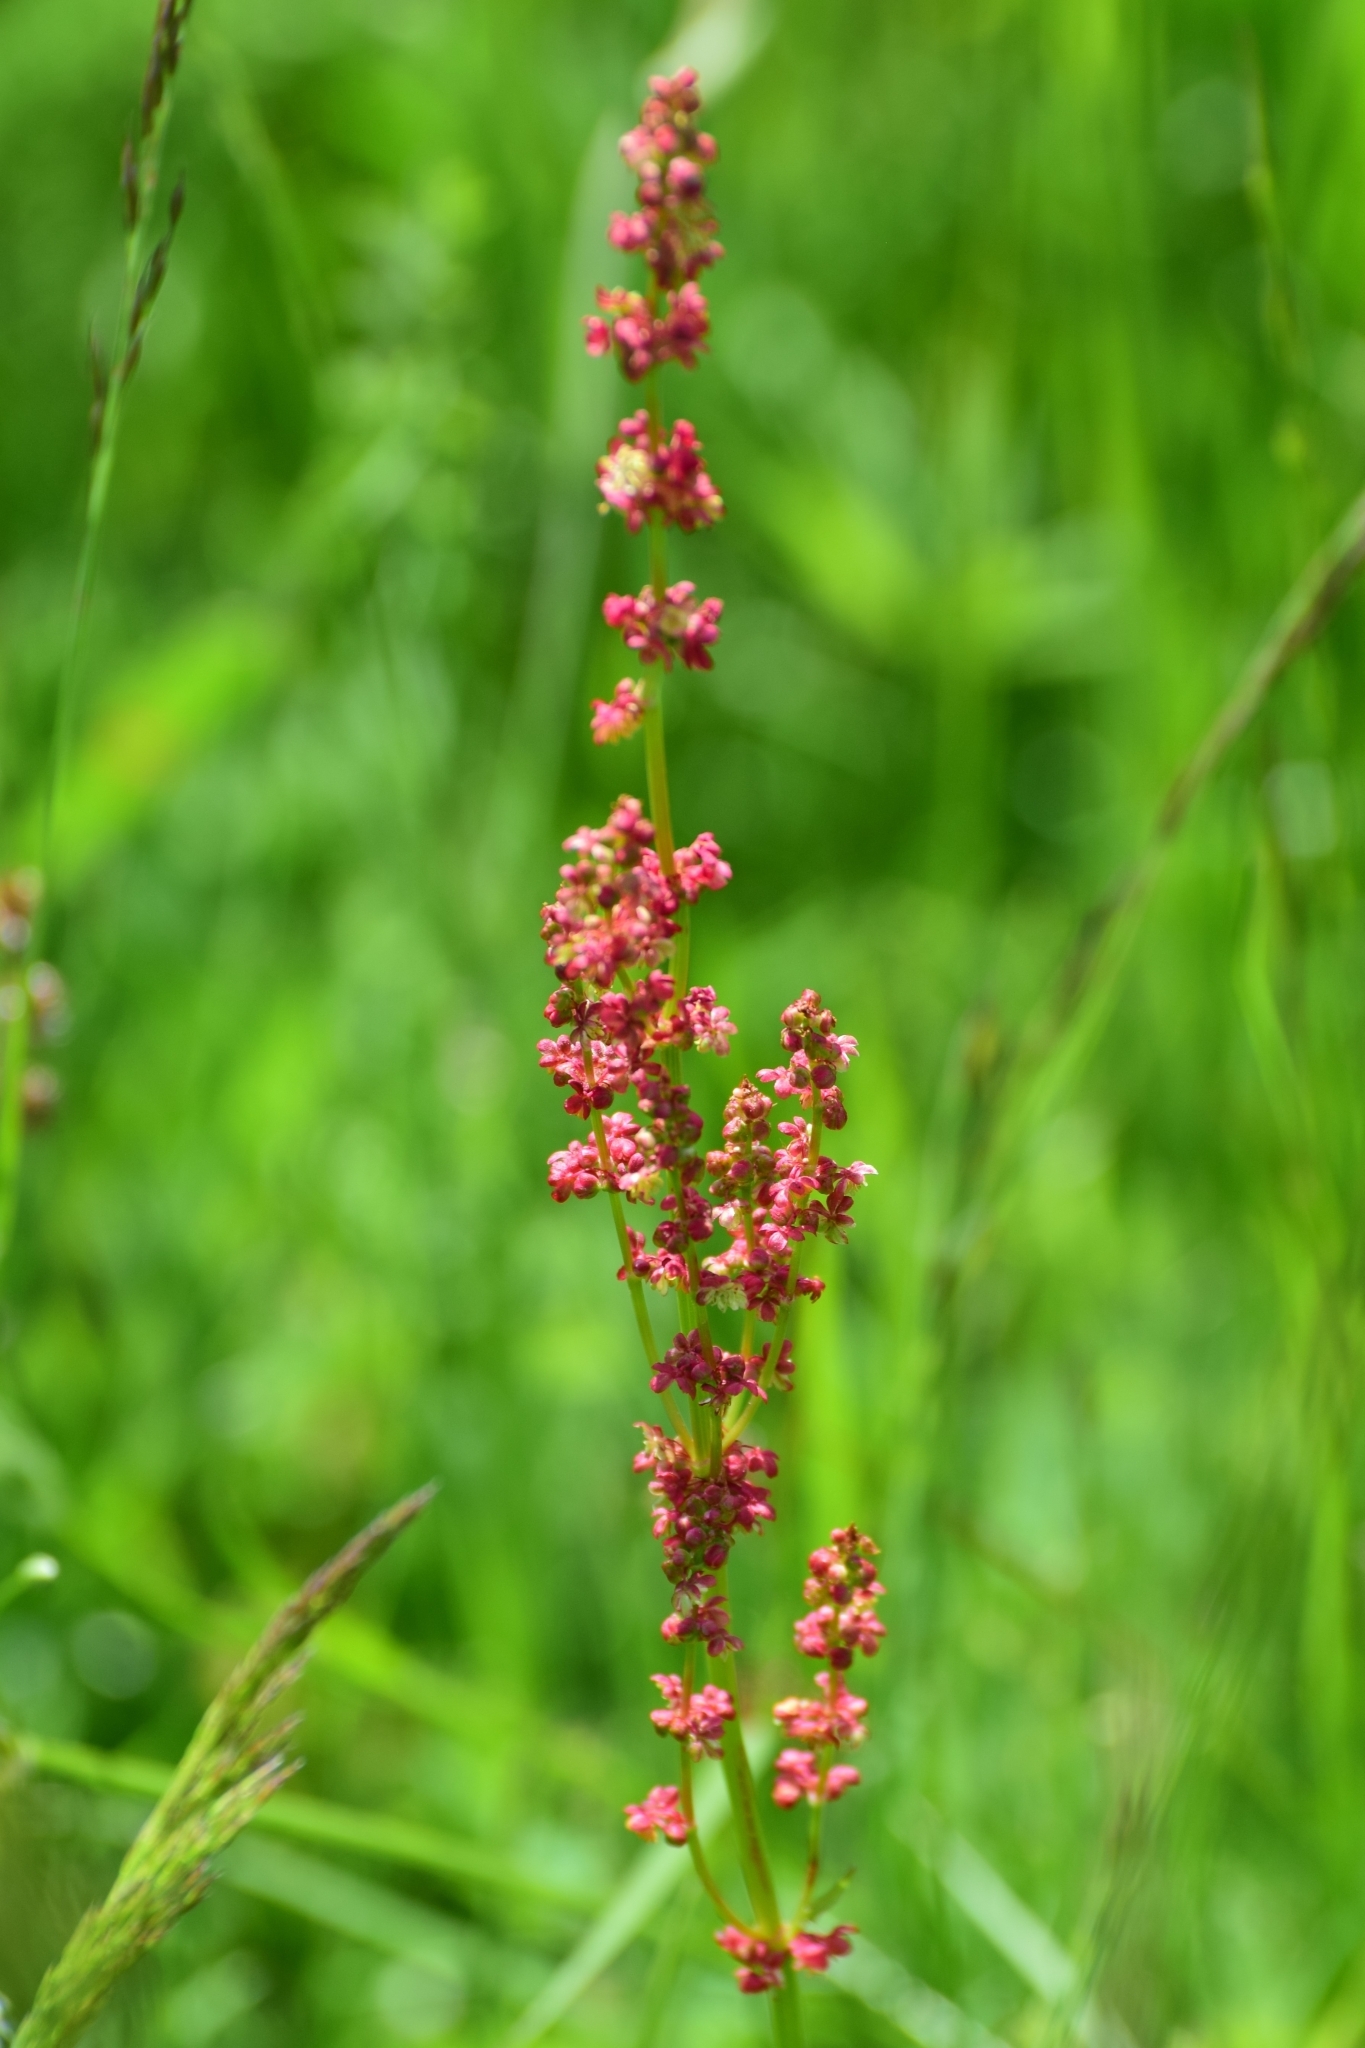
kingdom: Plantae
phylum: Tracheophyta
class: Magnoliopsida
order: Caryophyllales
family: Polygonaceae
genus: Rumex
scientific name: Rumex acetosa
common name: Garden sorrel
